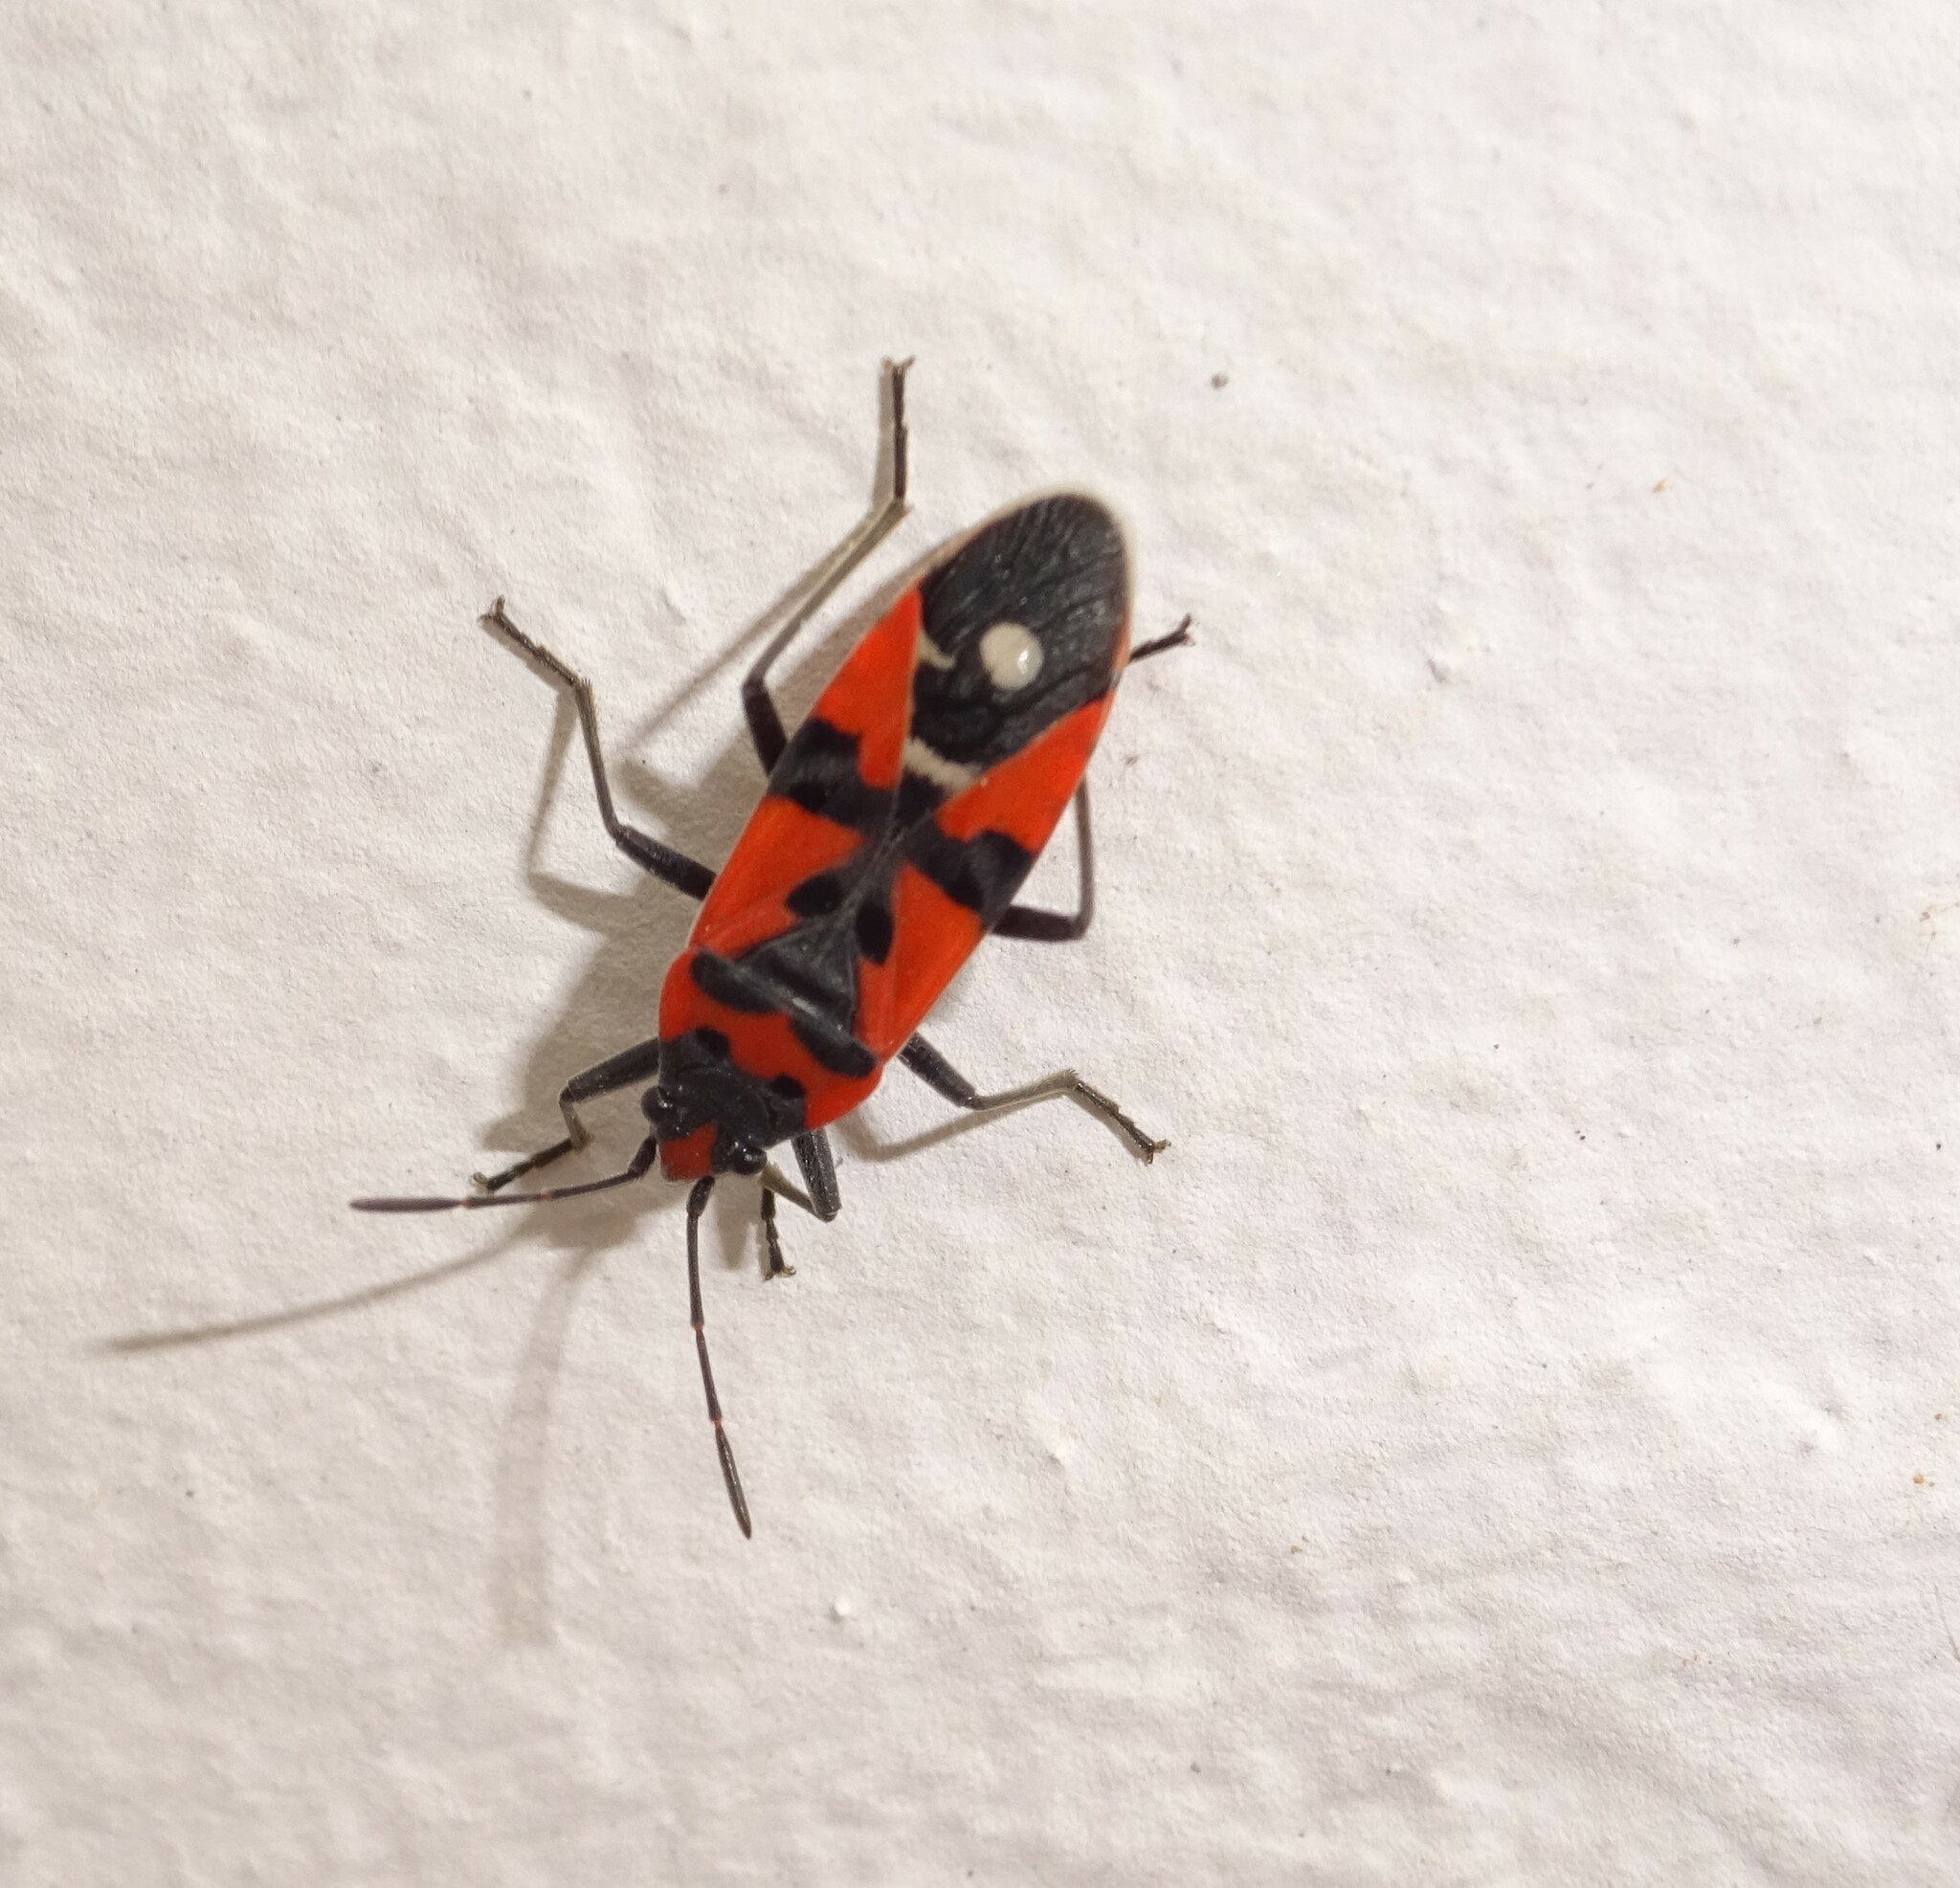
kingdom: Animalia
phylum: Arthropoda
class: Insecta
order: Hemiptera
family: Lygaeidae
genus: Lygaeus
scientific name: Lygaeus
